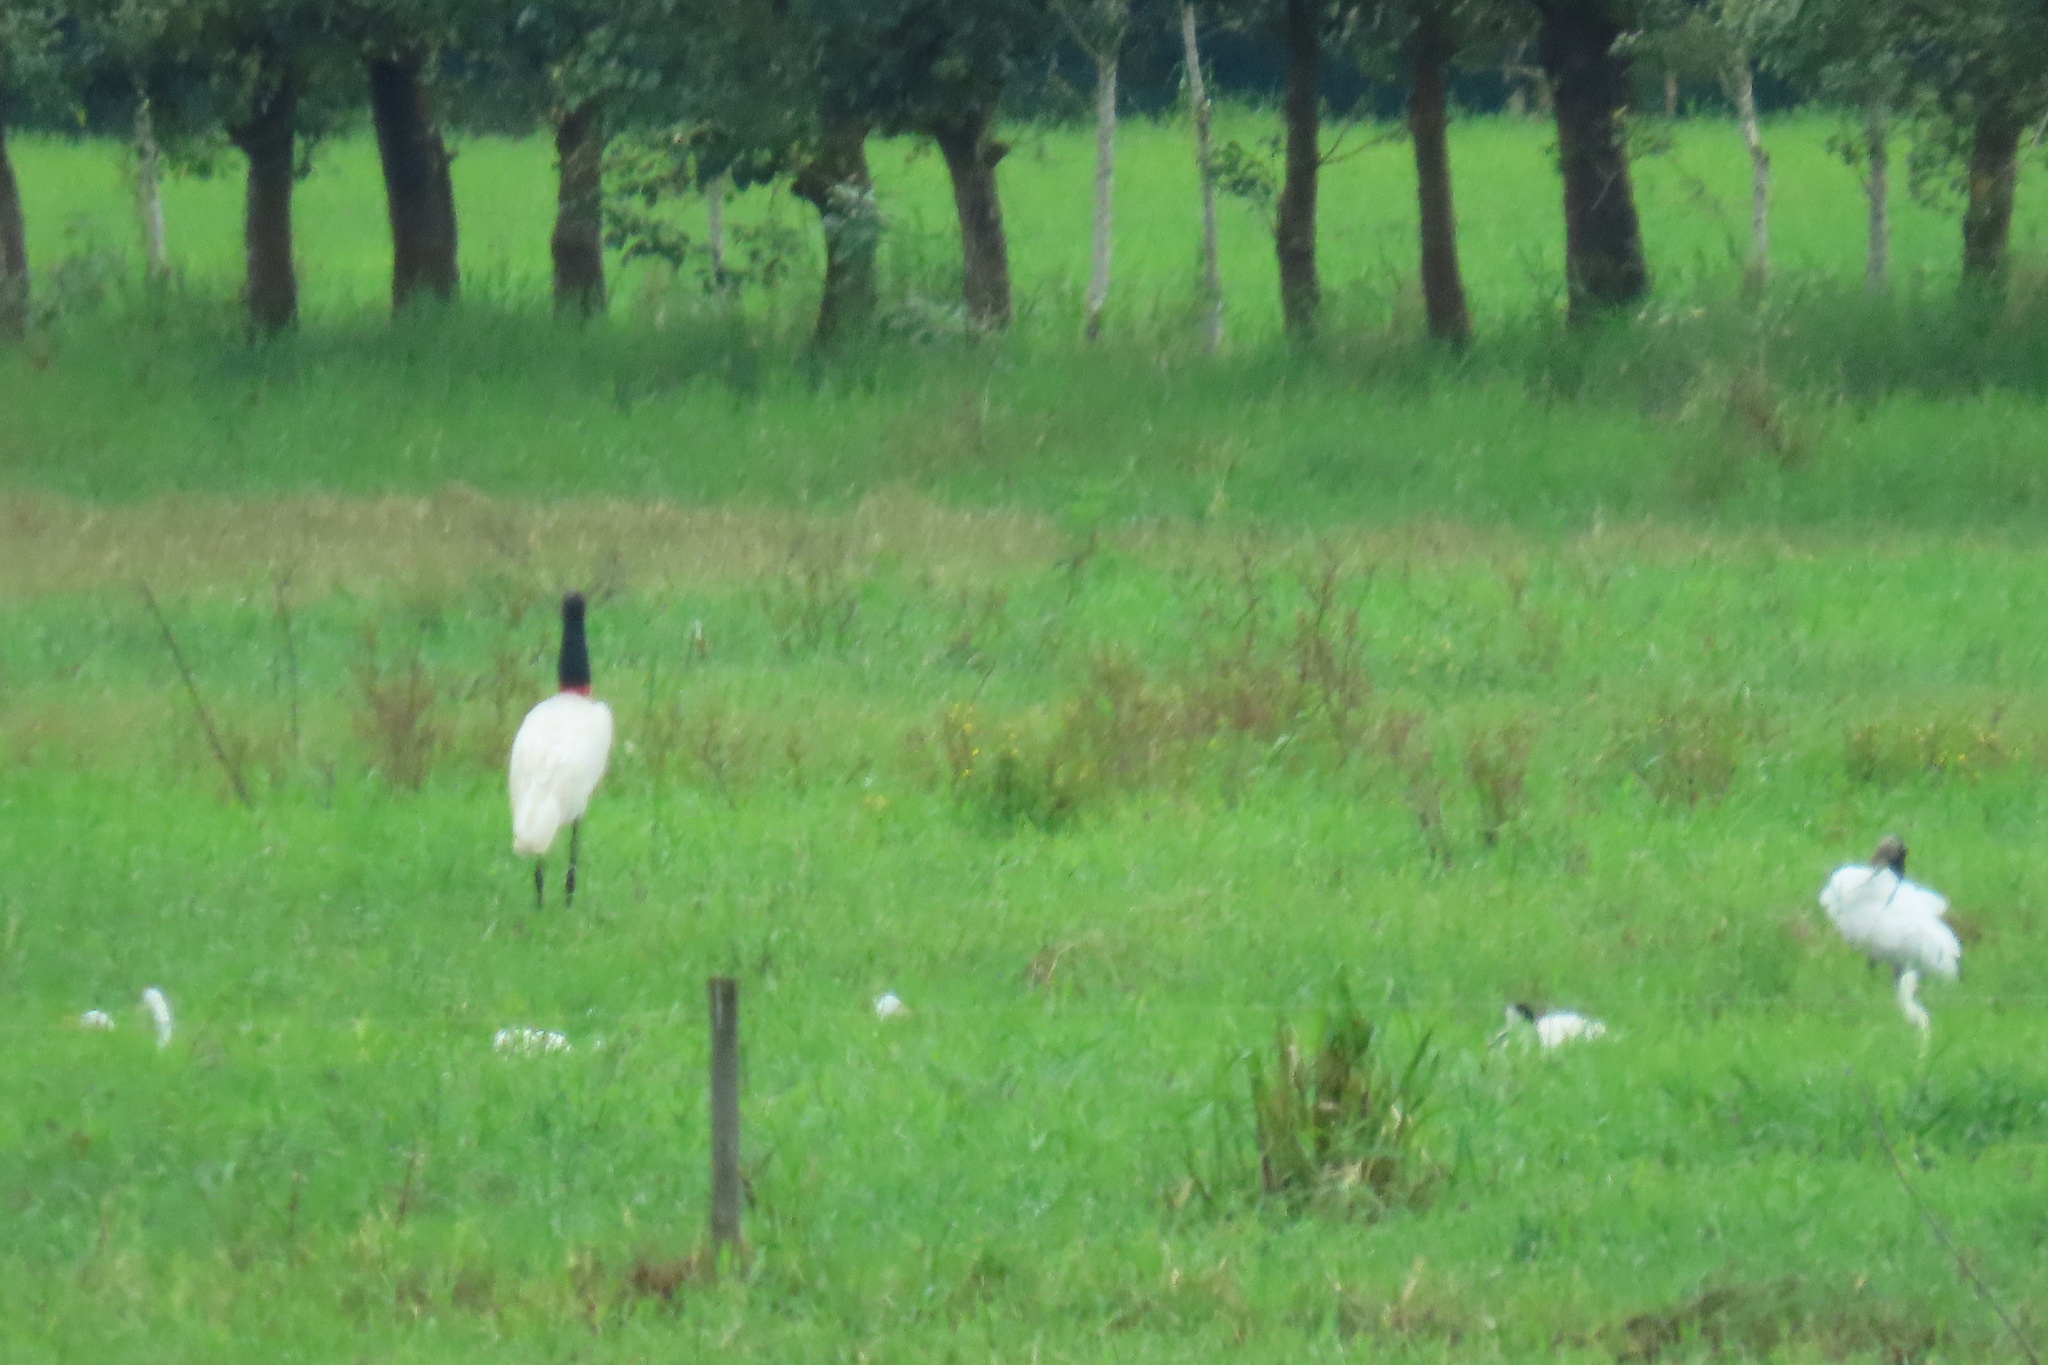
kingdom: Animalia
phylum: Chordata
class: Aves
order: Ciconiiformes
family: Ciconiidae
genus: Jabiru
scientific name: Jabiru mycteria
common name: Jabiru
